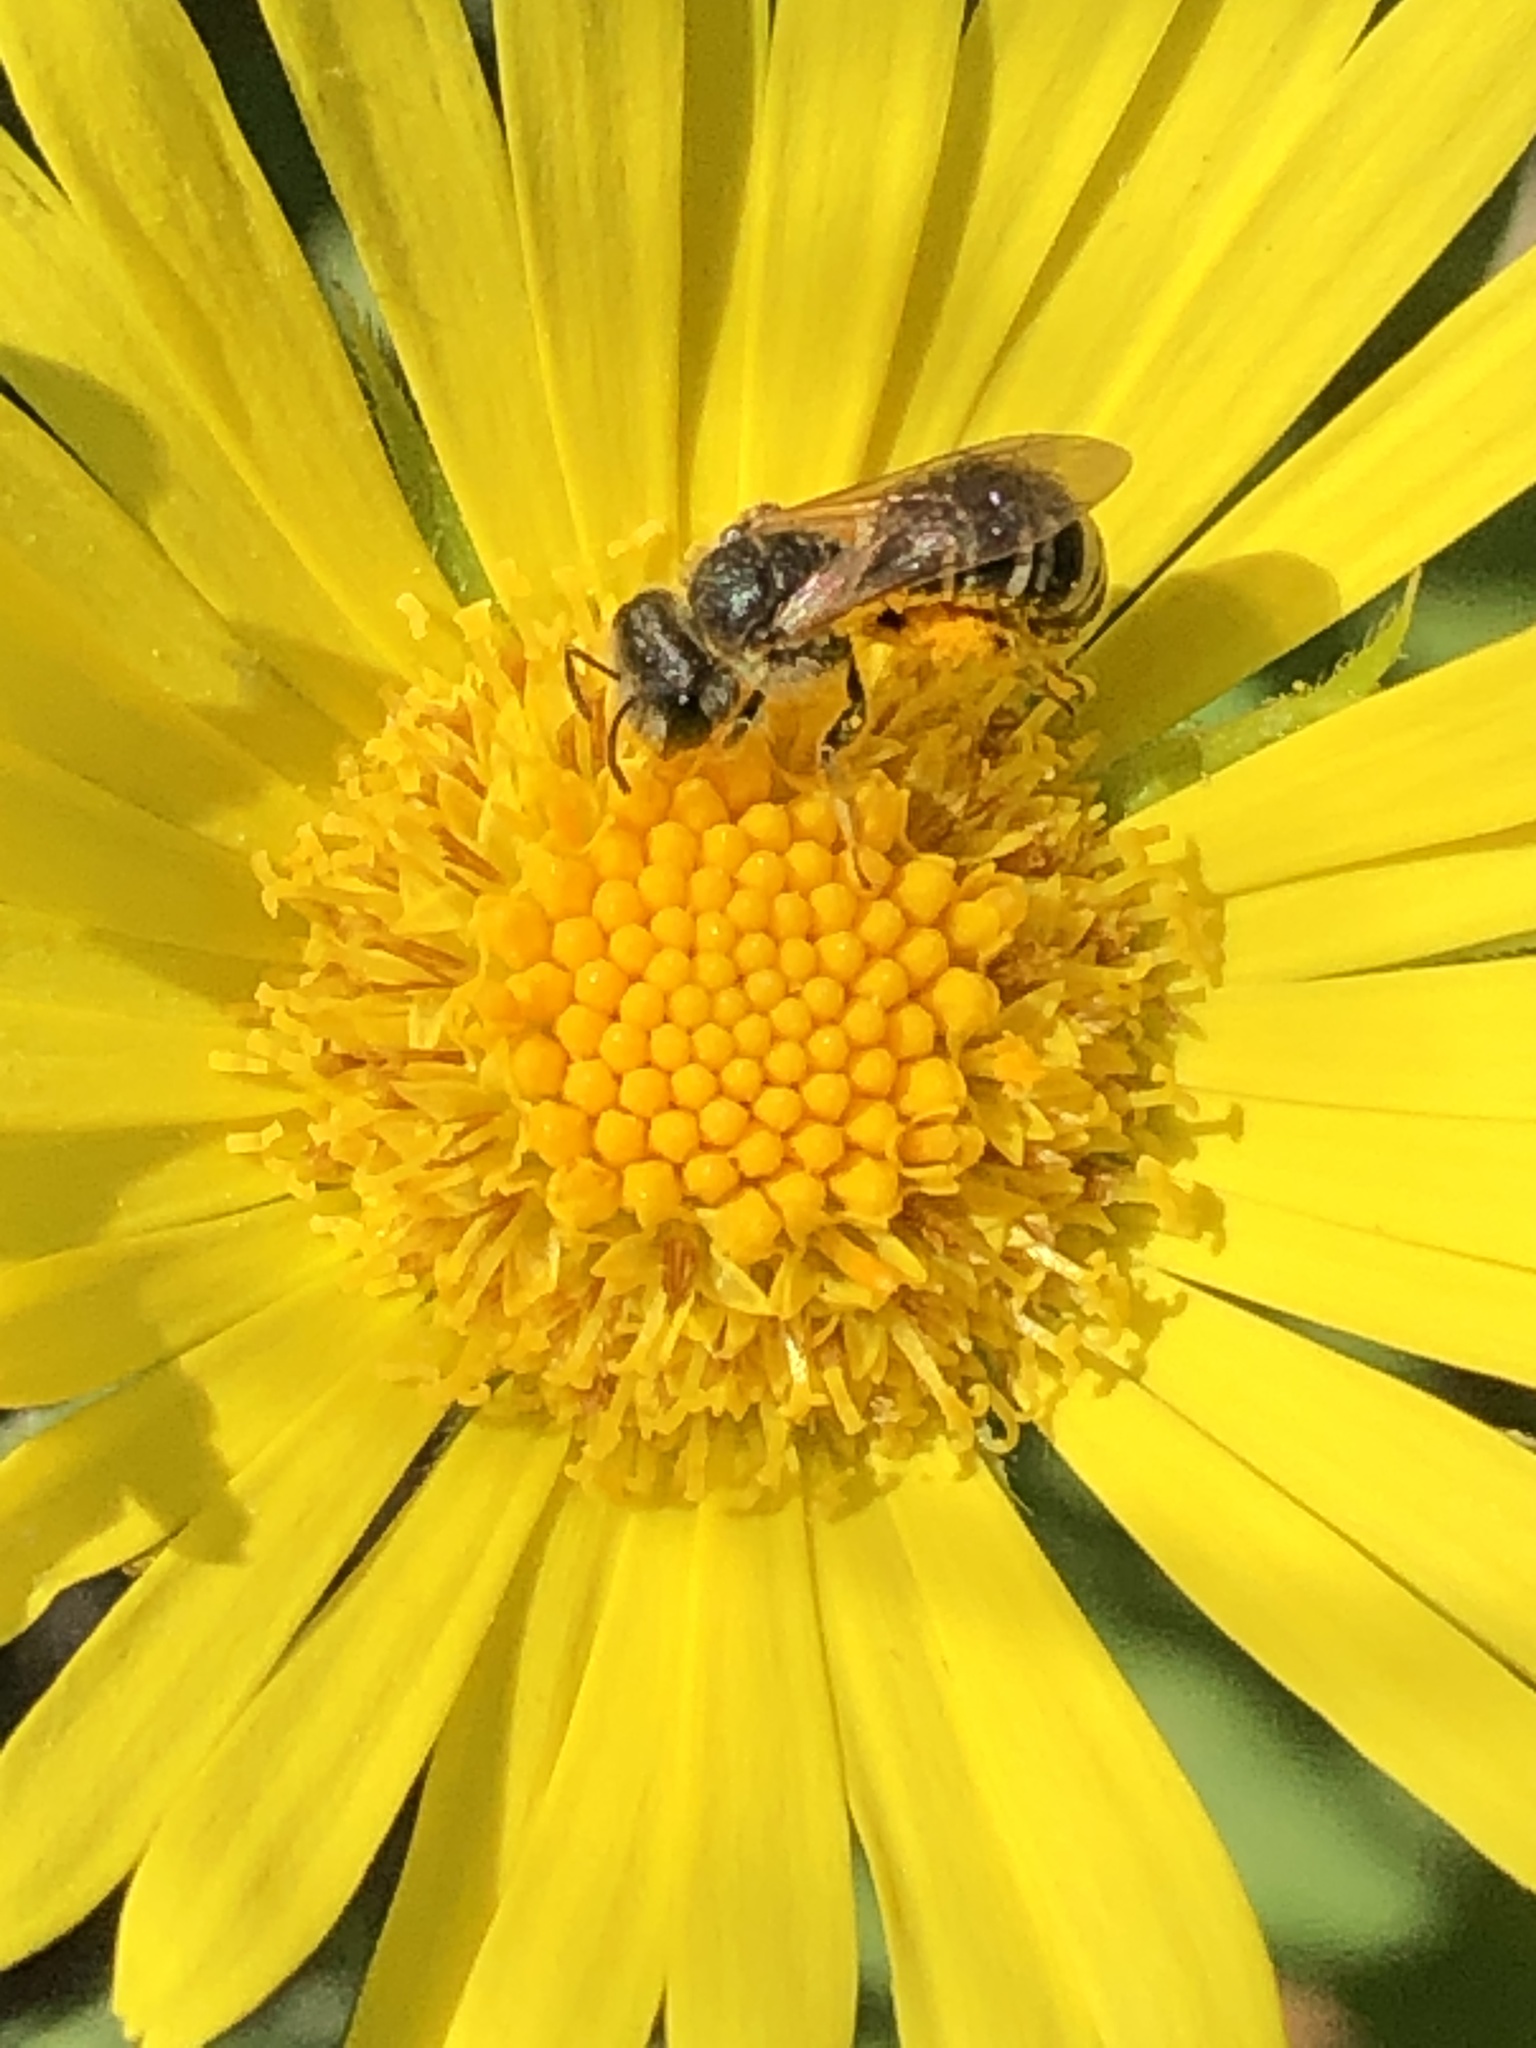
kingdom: Animalia
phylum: Arthropoda
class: Insecta
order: Hymenoptera
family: Halictidae
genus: Halictus
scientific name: Halictus ligatus
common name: Ligated furrow bee
